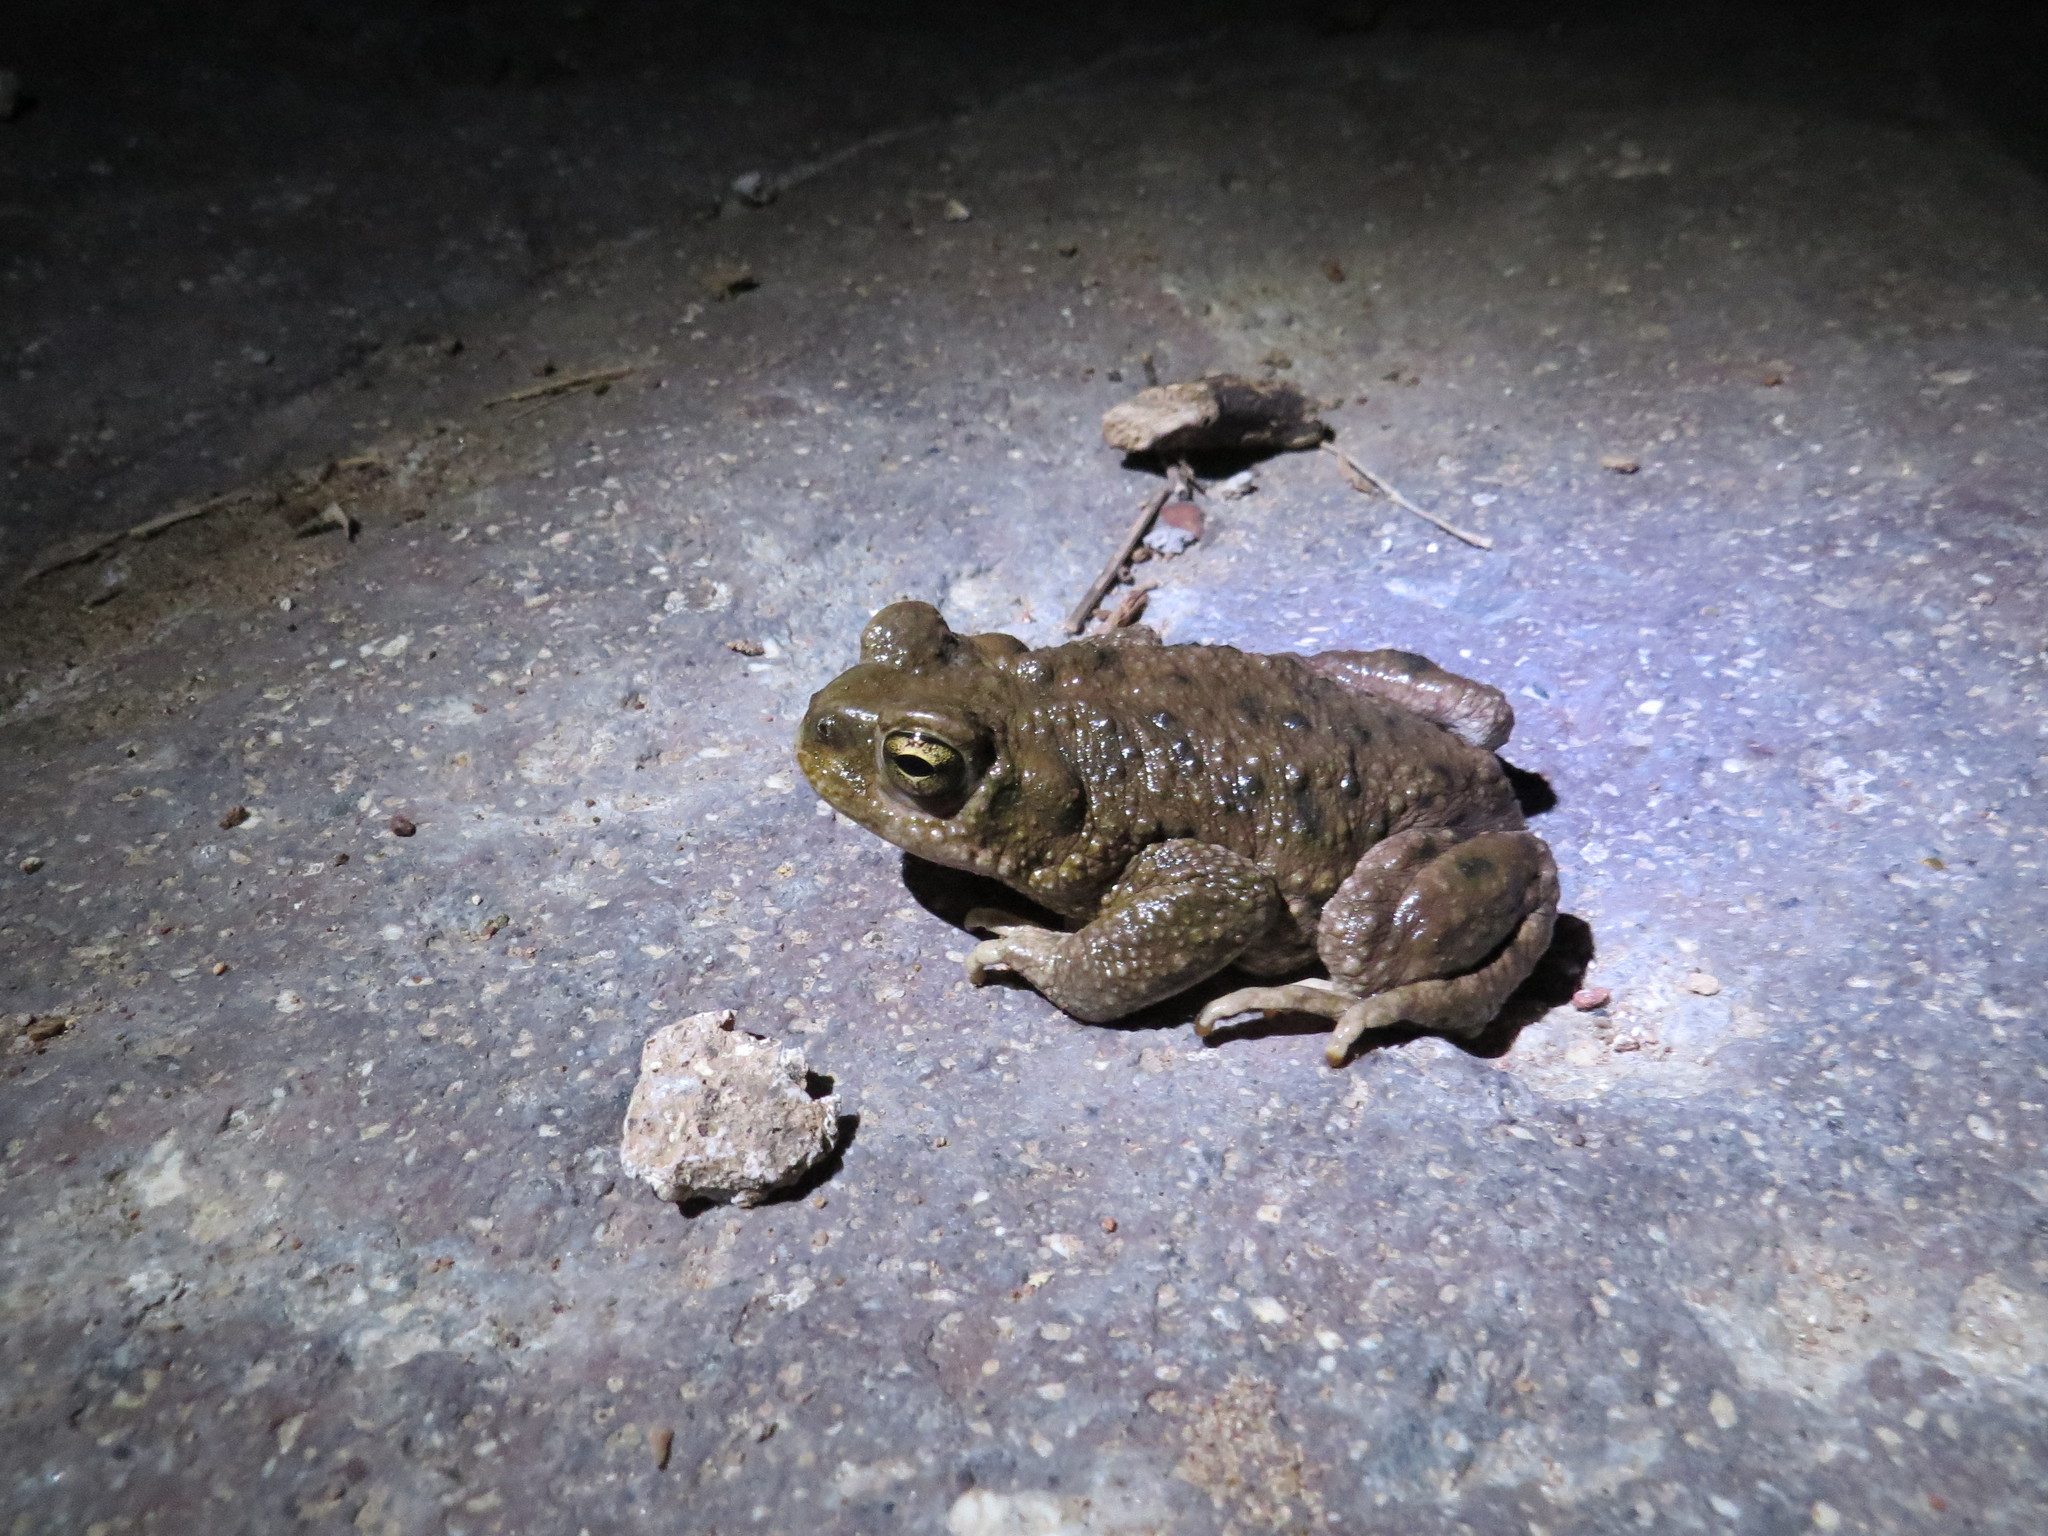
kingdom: Animalia
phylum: Chordata
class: Amphibia
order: Anura
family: Bufonidae
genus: Rhinella
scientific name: Rhinella spinulosa
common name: Warty toad
